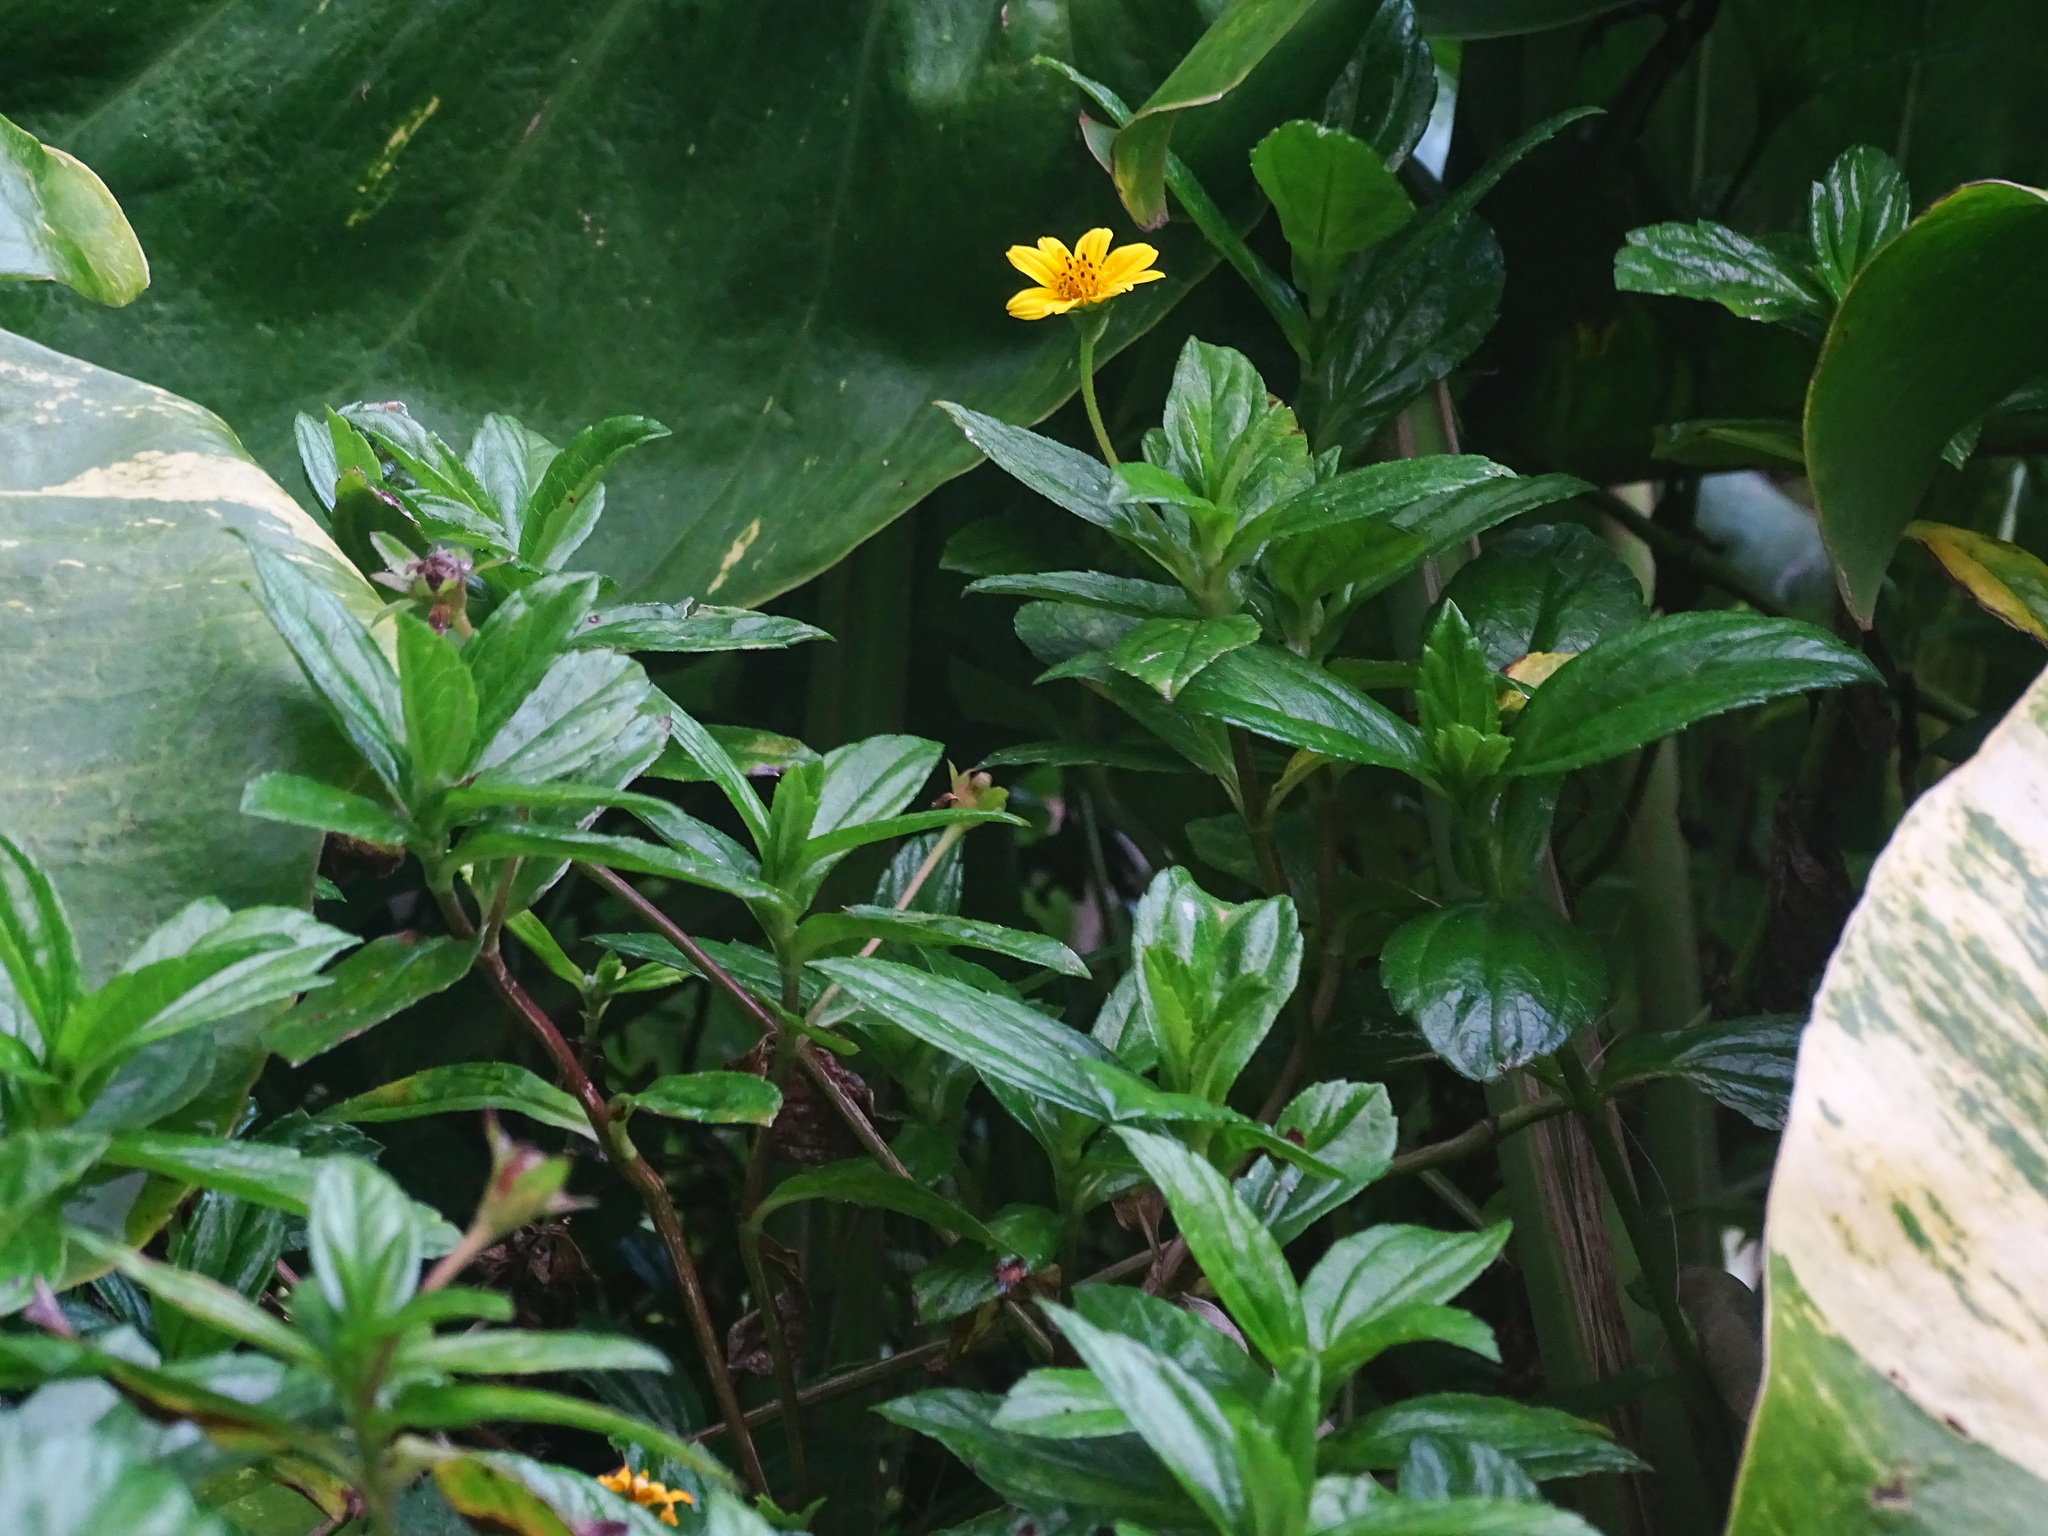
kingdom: Plantae
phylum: Tracheophyta
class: Magnoliopsida
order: Asterales
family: Asteraceae
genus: Sphagneticola
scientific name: Sphagneticola trilobata
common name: Bay biscayne creeping-oxeye
